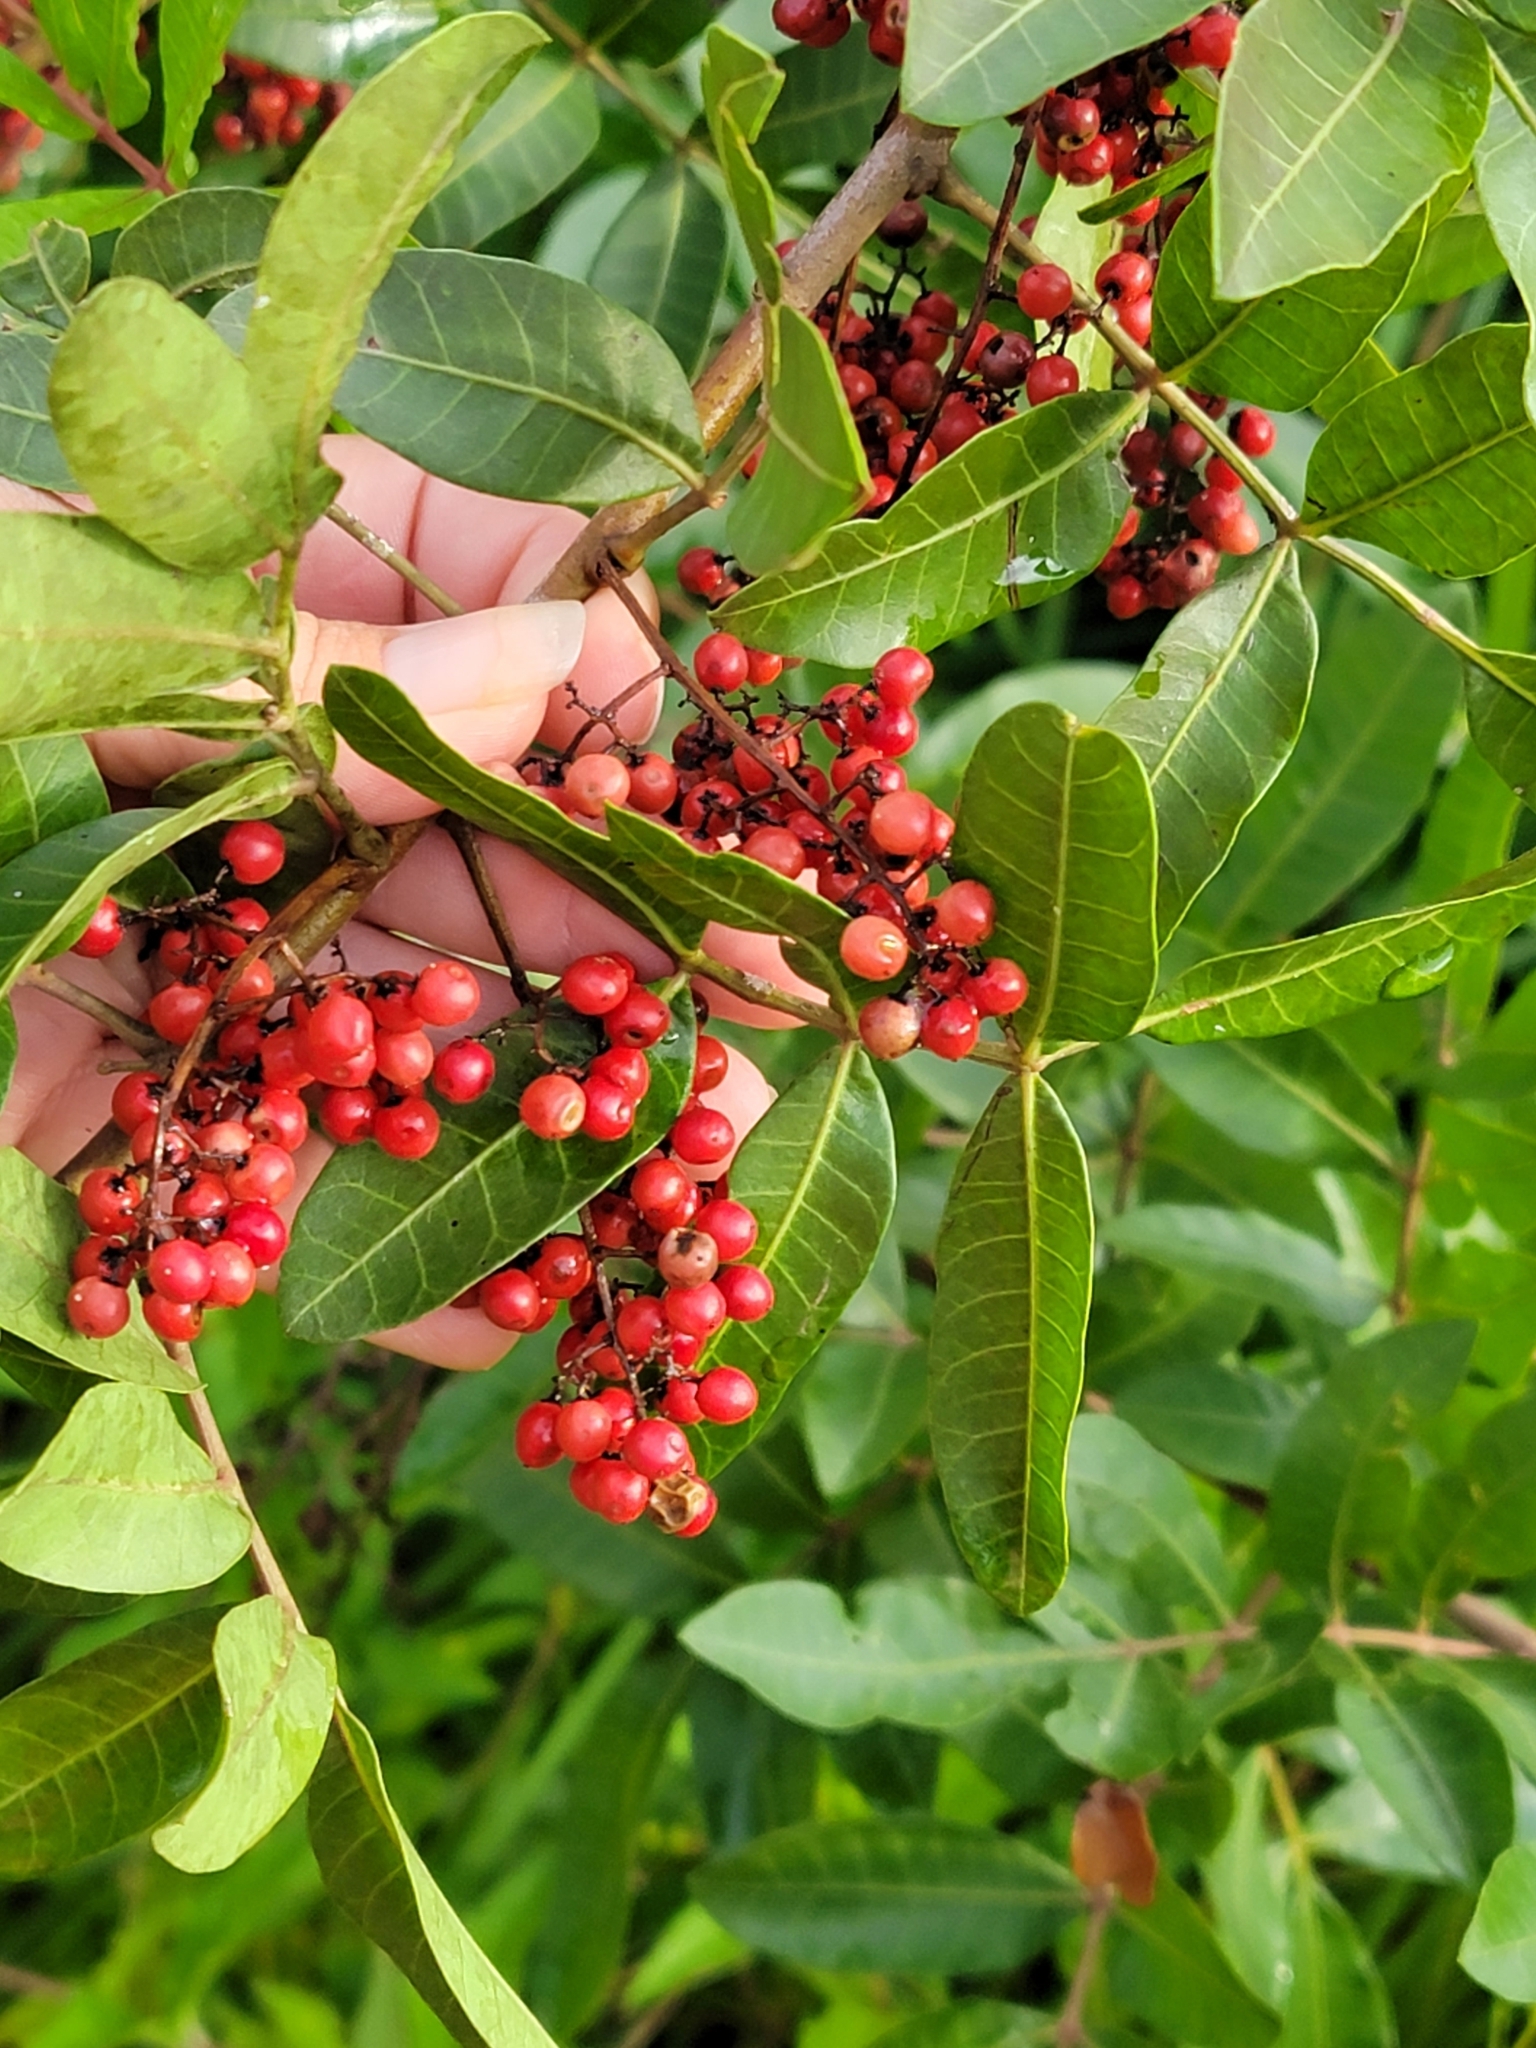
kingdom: Plantae
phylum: Tracheophyta
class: Magnoliopsida
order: Sapindales
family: Anacardiaceae
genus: Schinus
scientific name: Schinus terebinthifolia
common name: Brazilian peppertree
